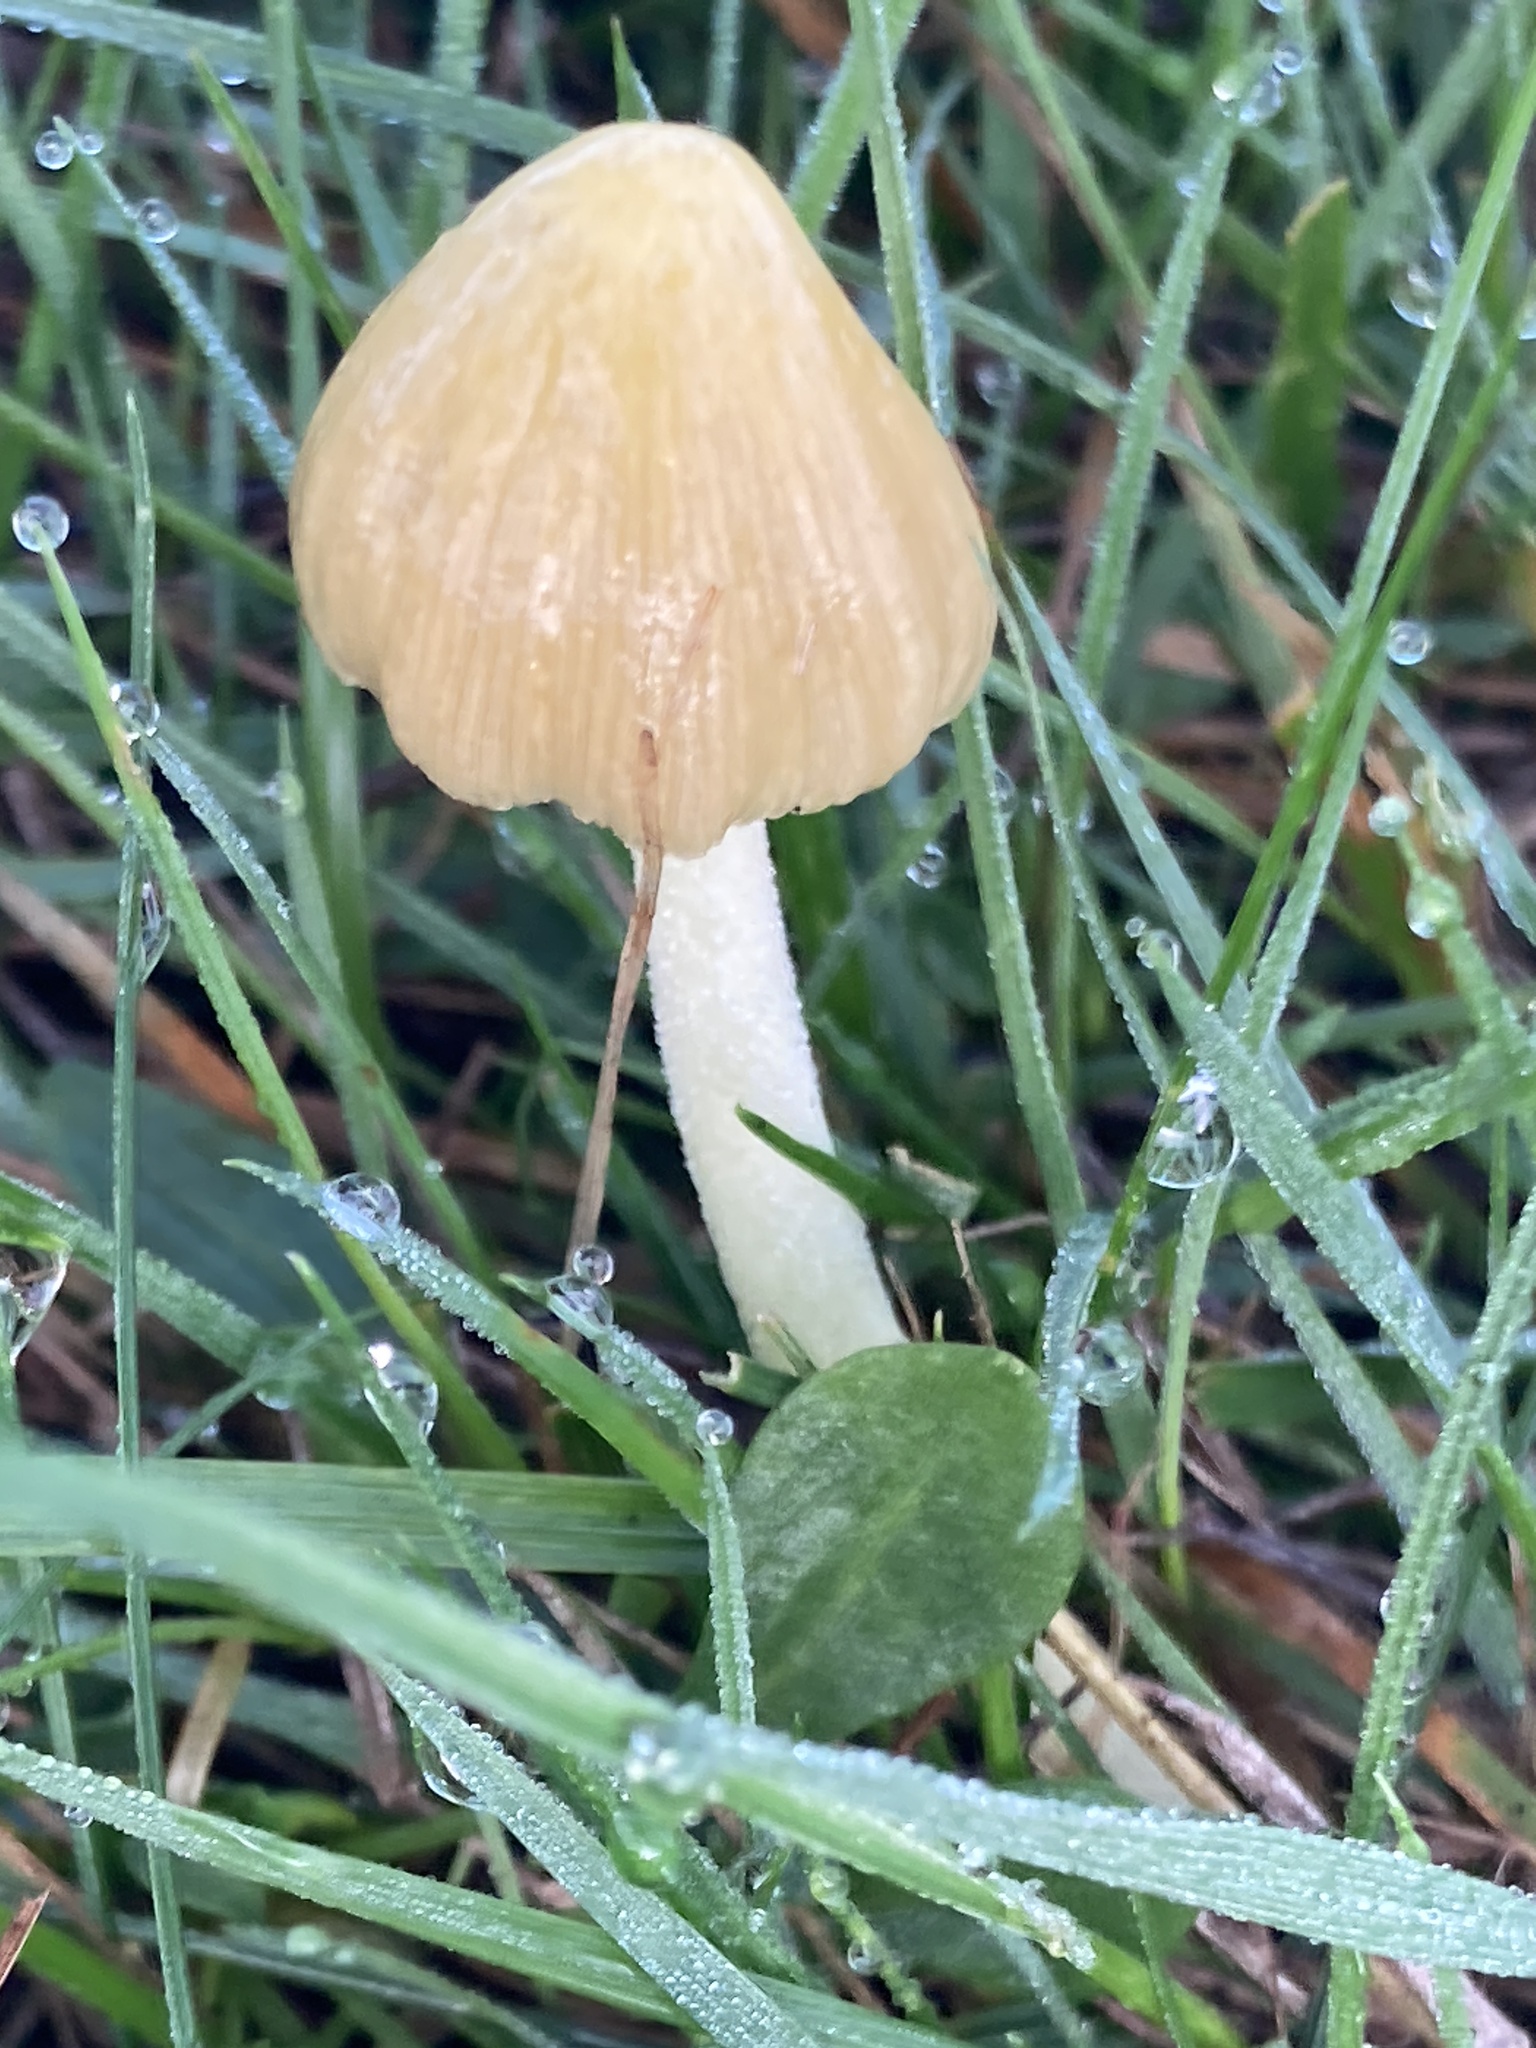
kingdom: Fungi
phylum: Basidiomycota
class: Agaricomycetes
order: Agaricales
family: Bolbitiaceae
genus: Bolbitius
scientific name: Bolbitius titubans
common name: Yellow fieldcap
